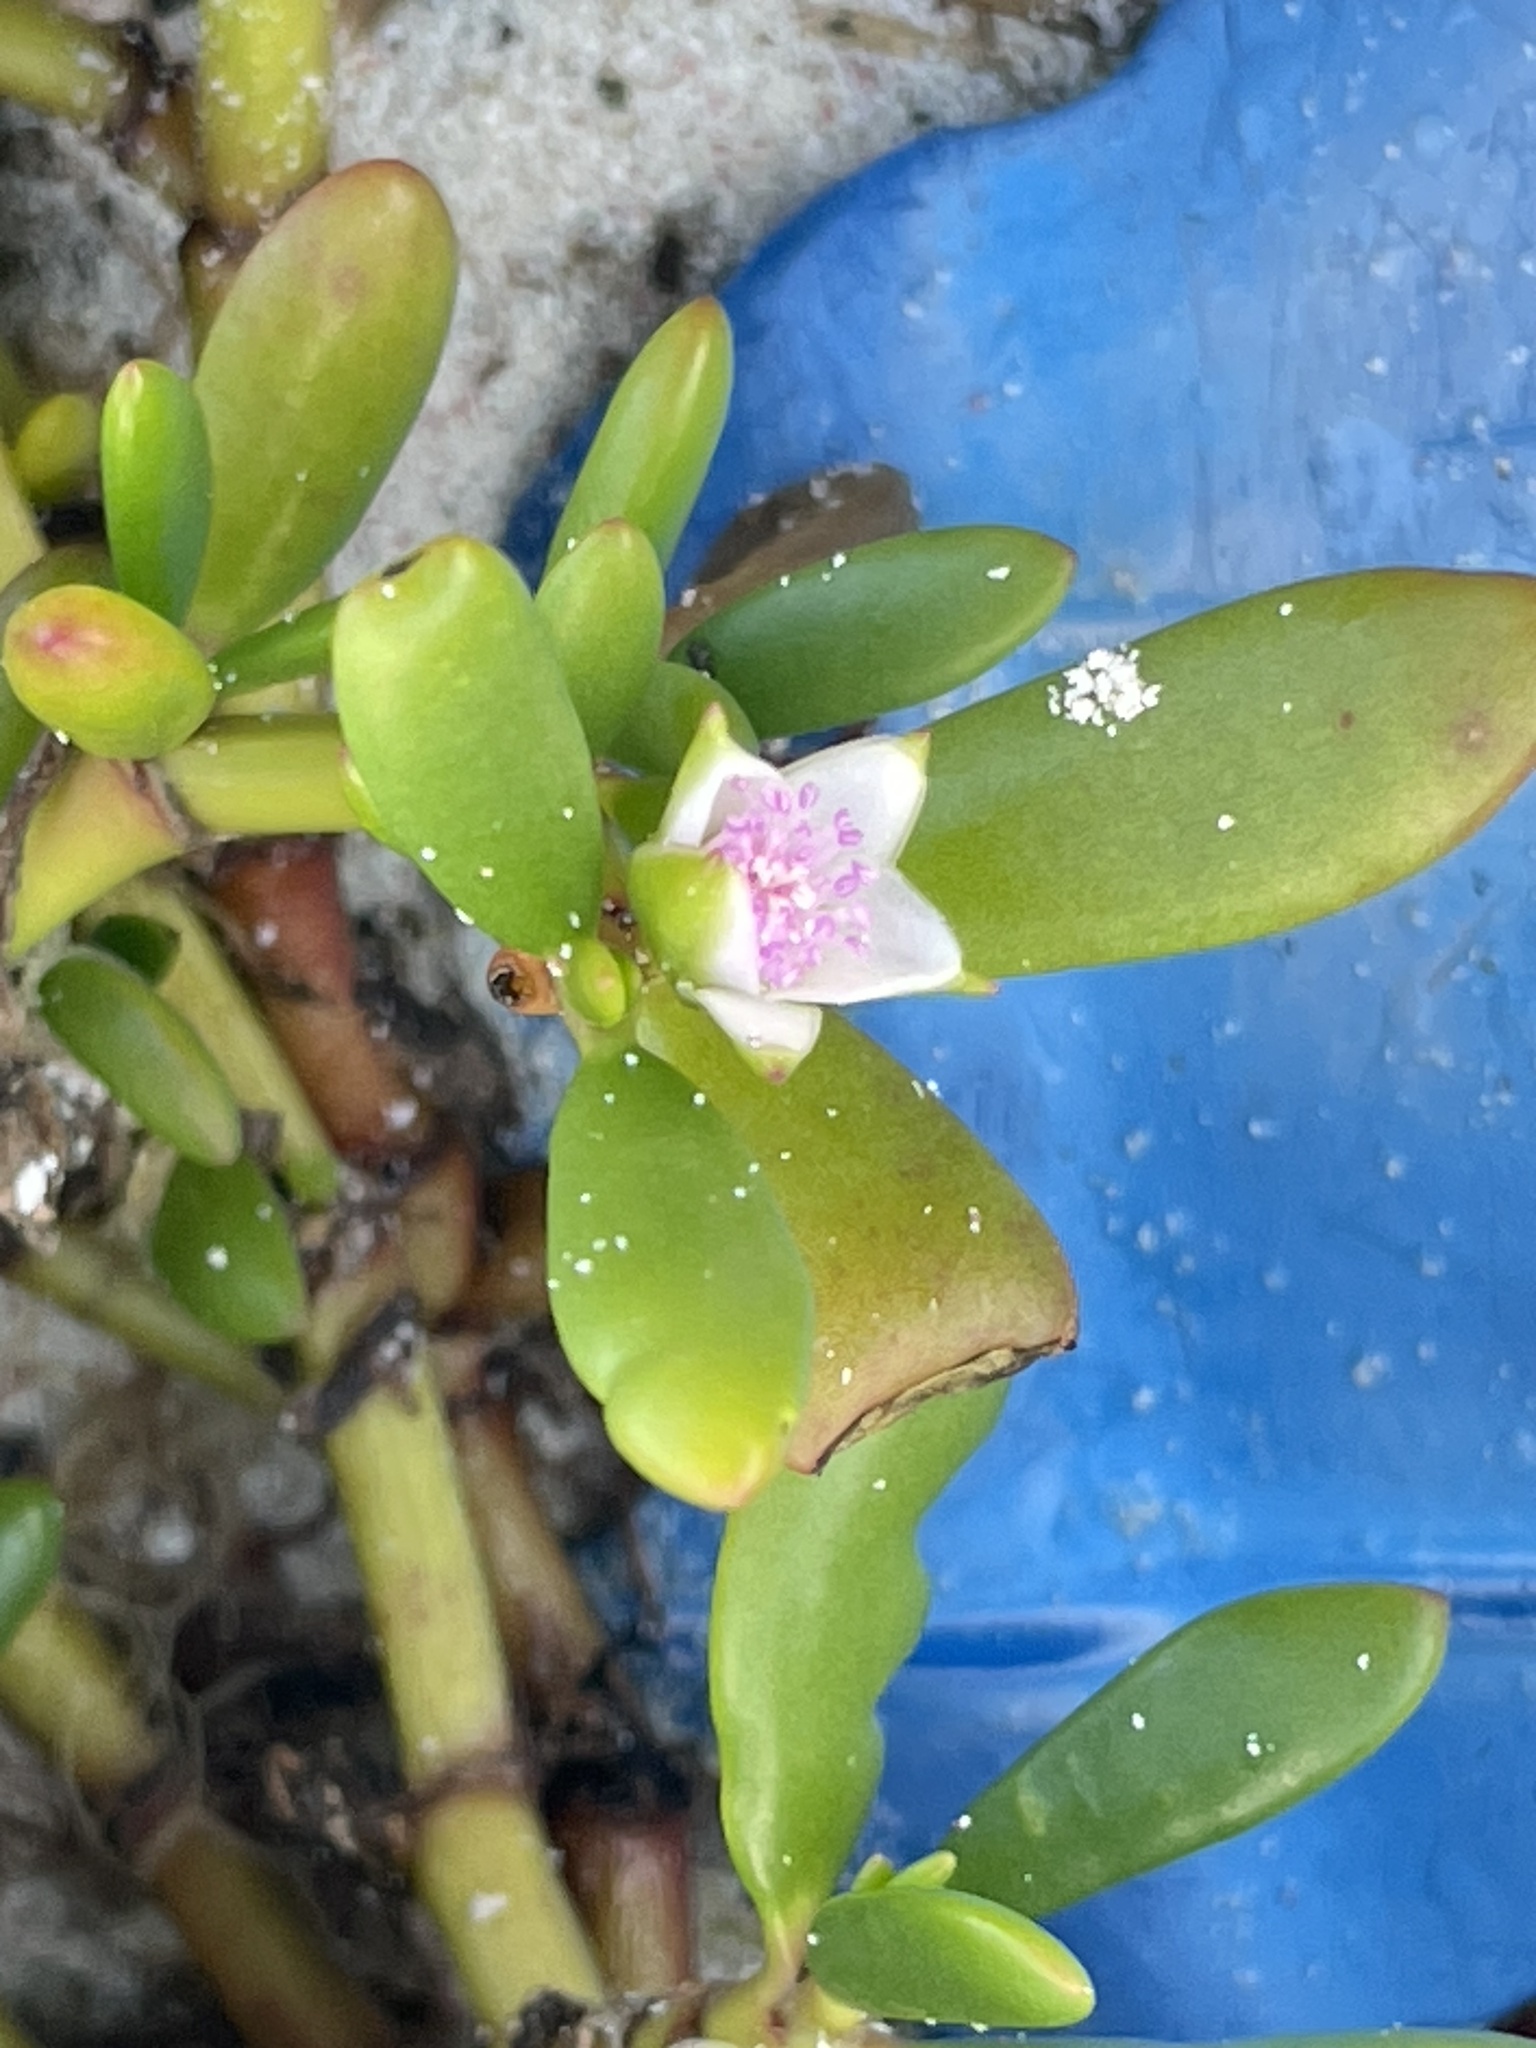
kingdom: Plantae
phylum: Tracheophyta
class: Magnoliopsida
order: Caryophyllales
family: Aizoaceae
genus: Sesuvium
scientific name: Sesuvium portulacastrum
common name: Sea-purslane
